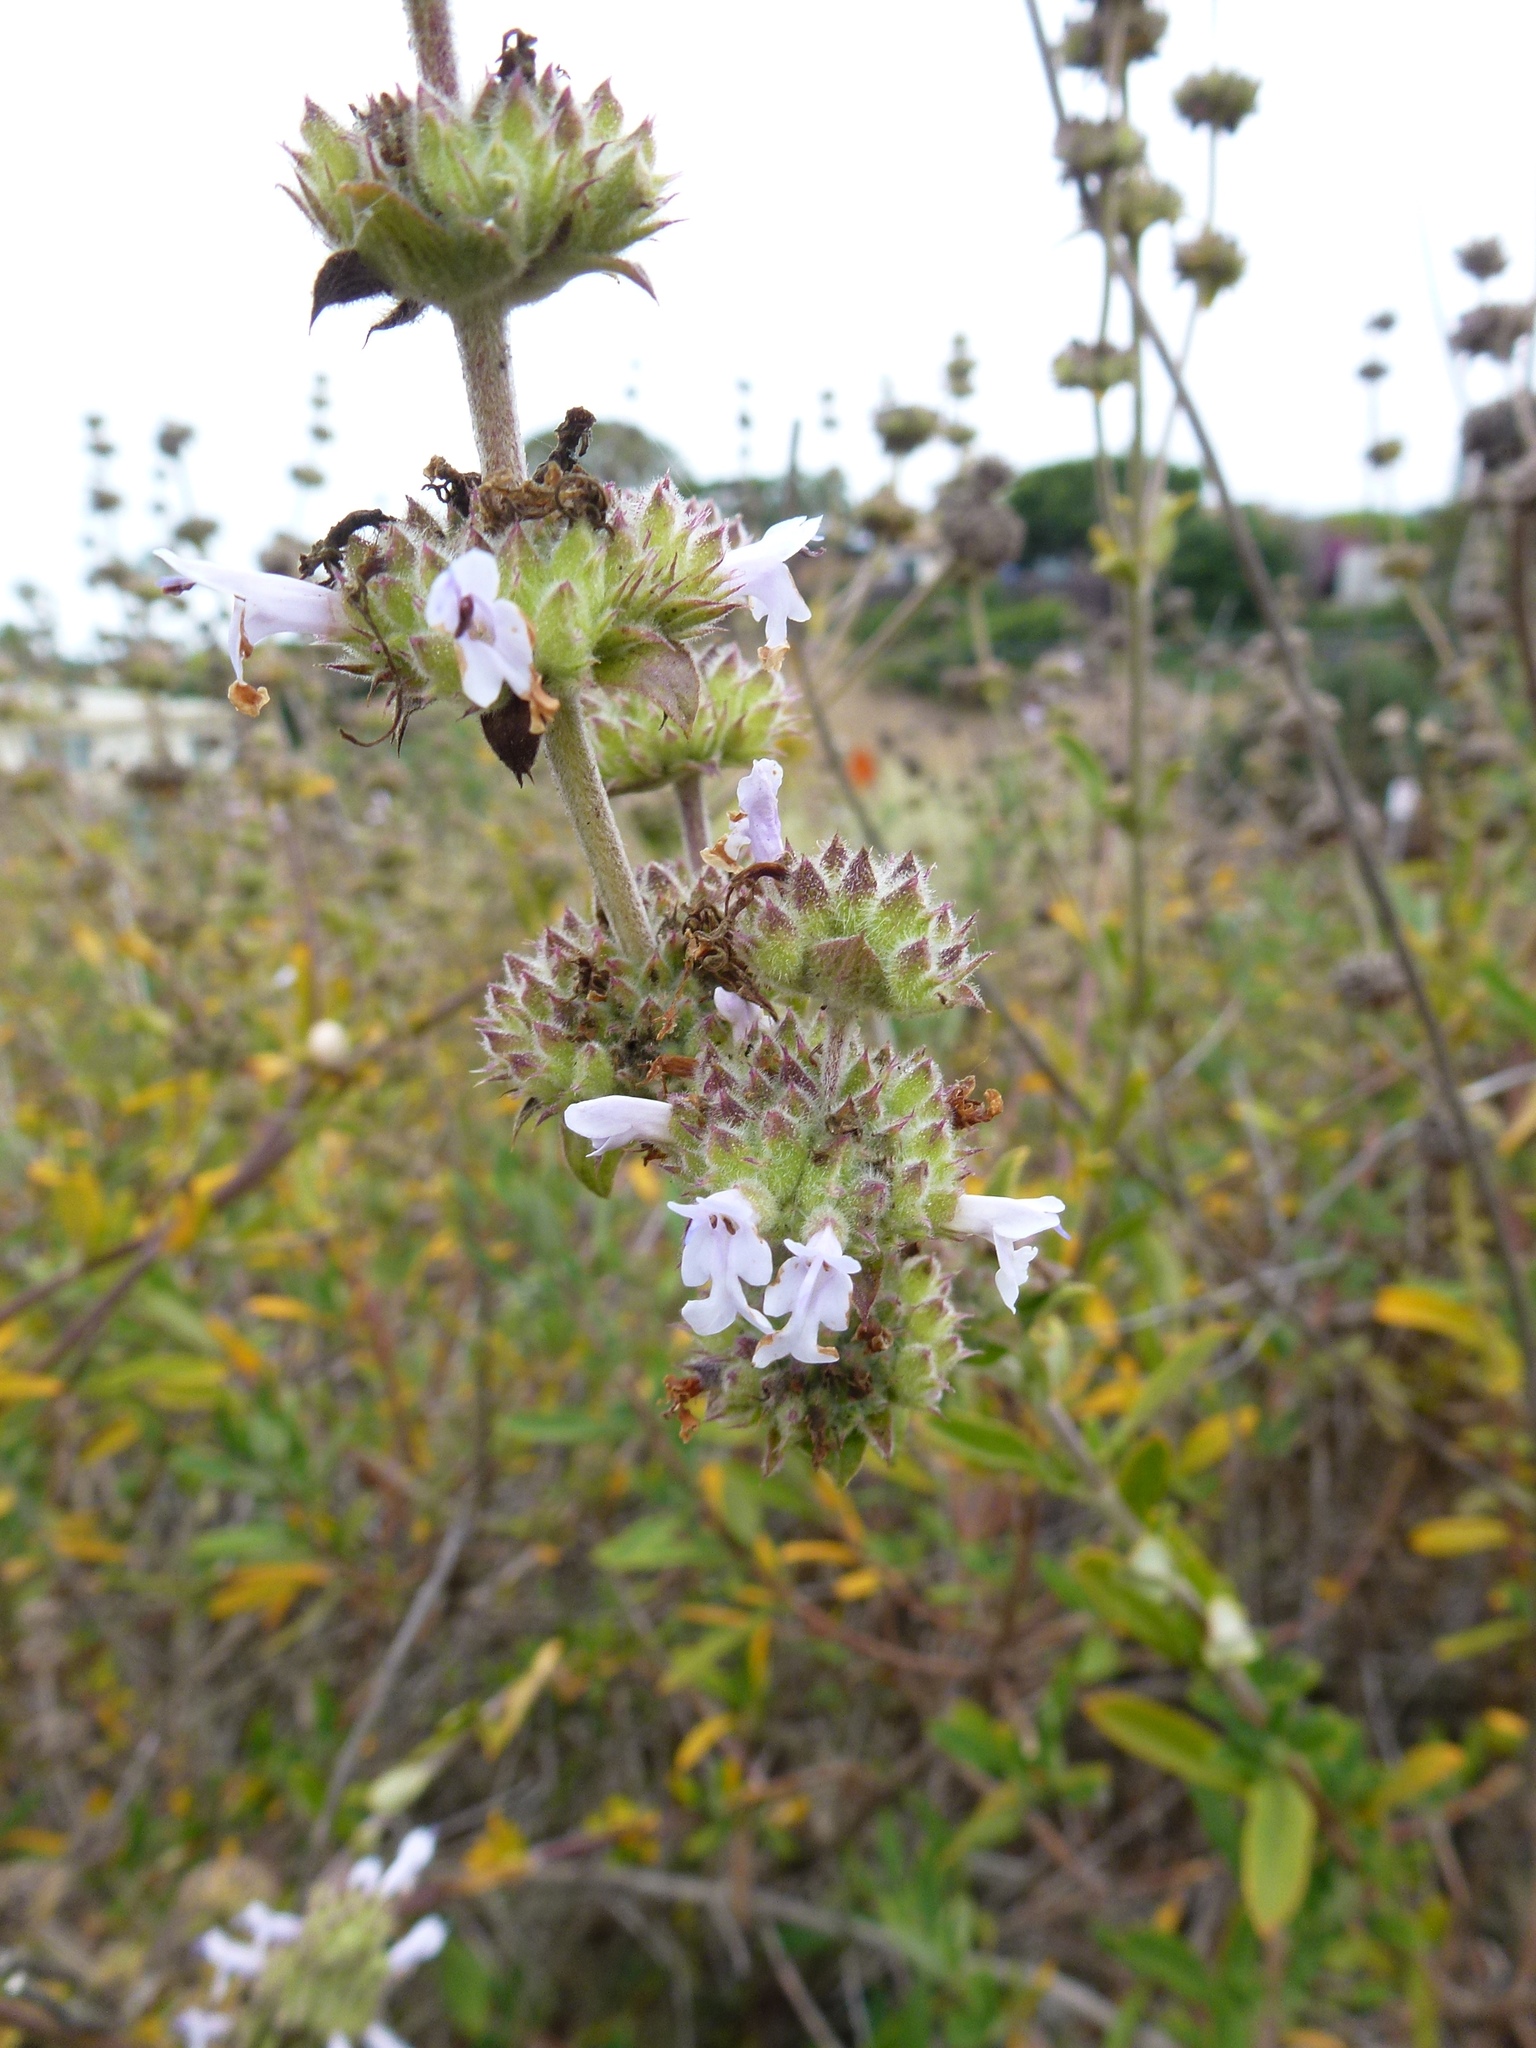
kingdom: Plantae
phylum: Tracheophyta
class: Magnoliopsida
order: Lamiales
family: Lamiaceae
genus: Salvia
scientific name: Salvia mellifera
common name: Black sage
